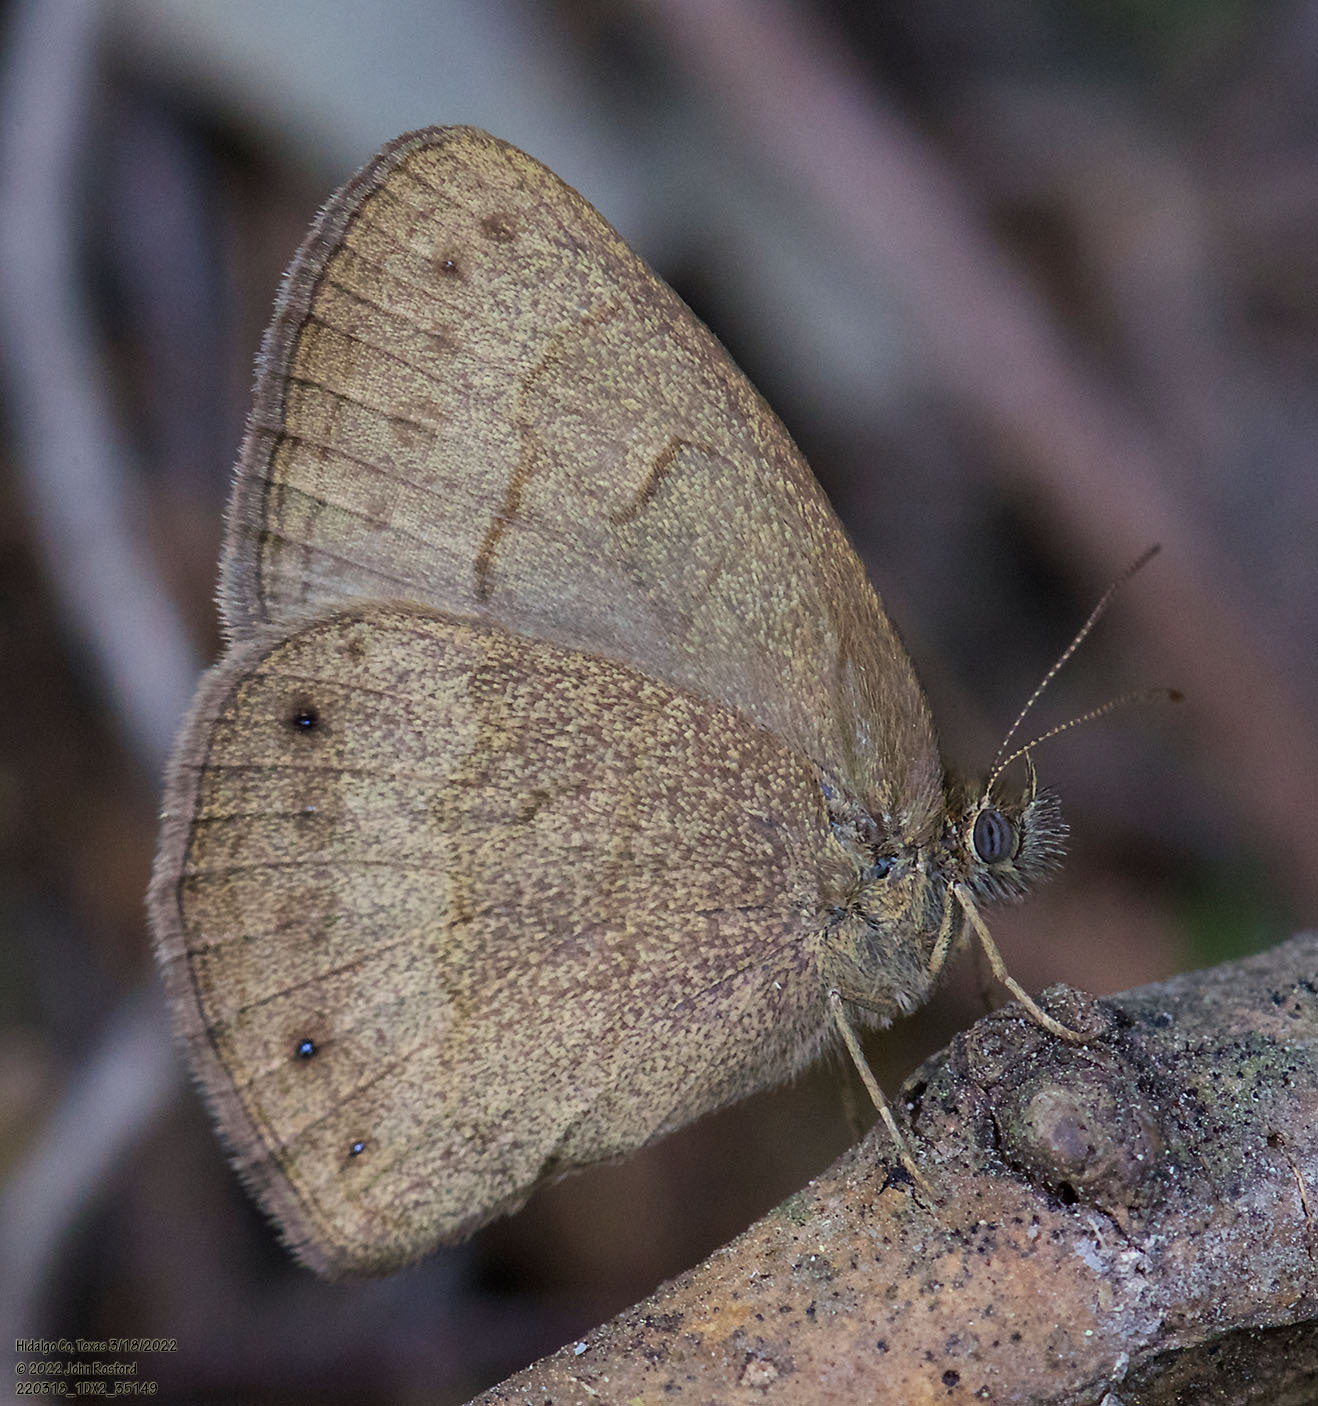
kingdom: Animalia
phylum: Arthropoda
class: Insecta
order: Lepidoptera
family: Nymphalidae
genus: Hermeuptychia
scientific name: Hermeuptychia hermybius
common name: South texas satyr
